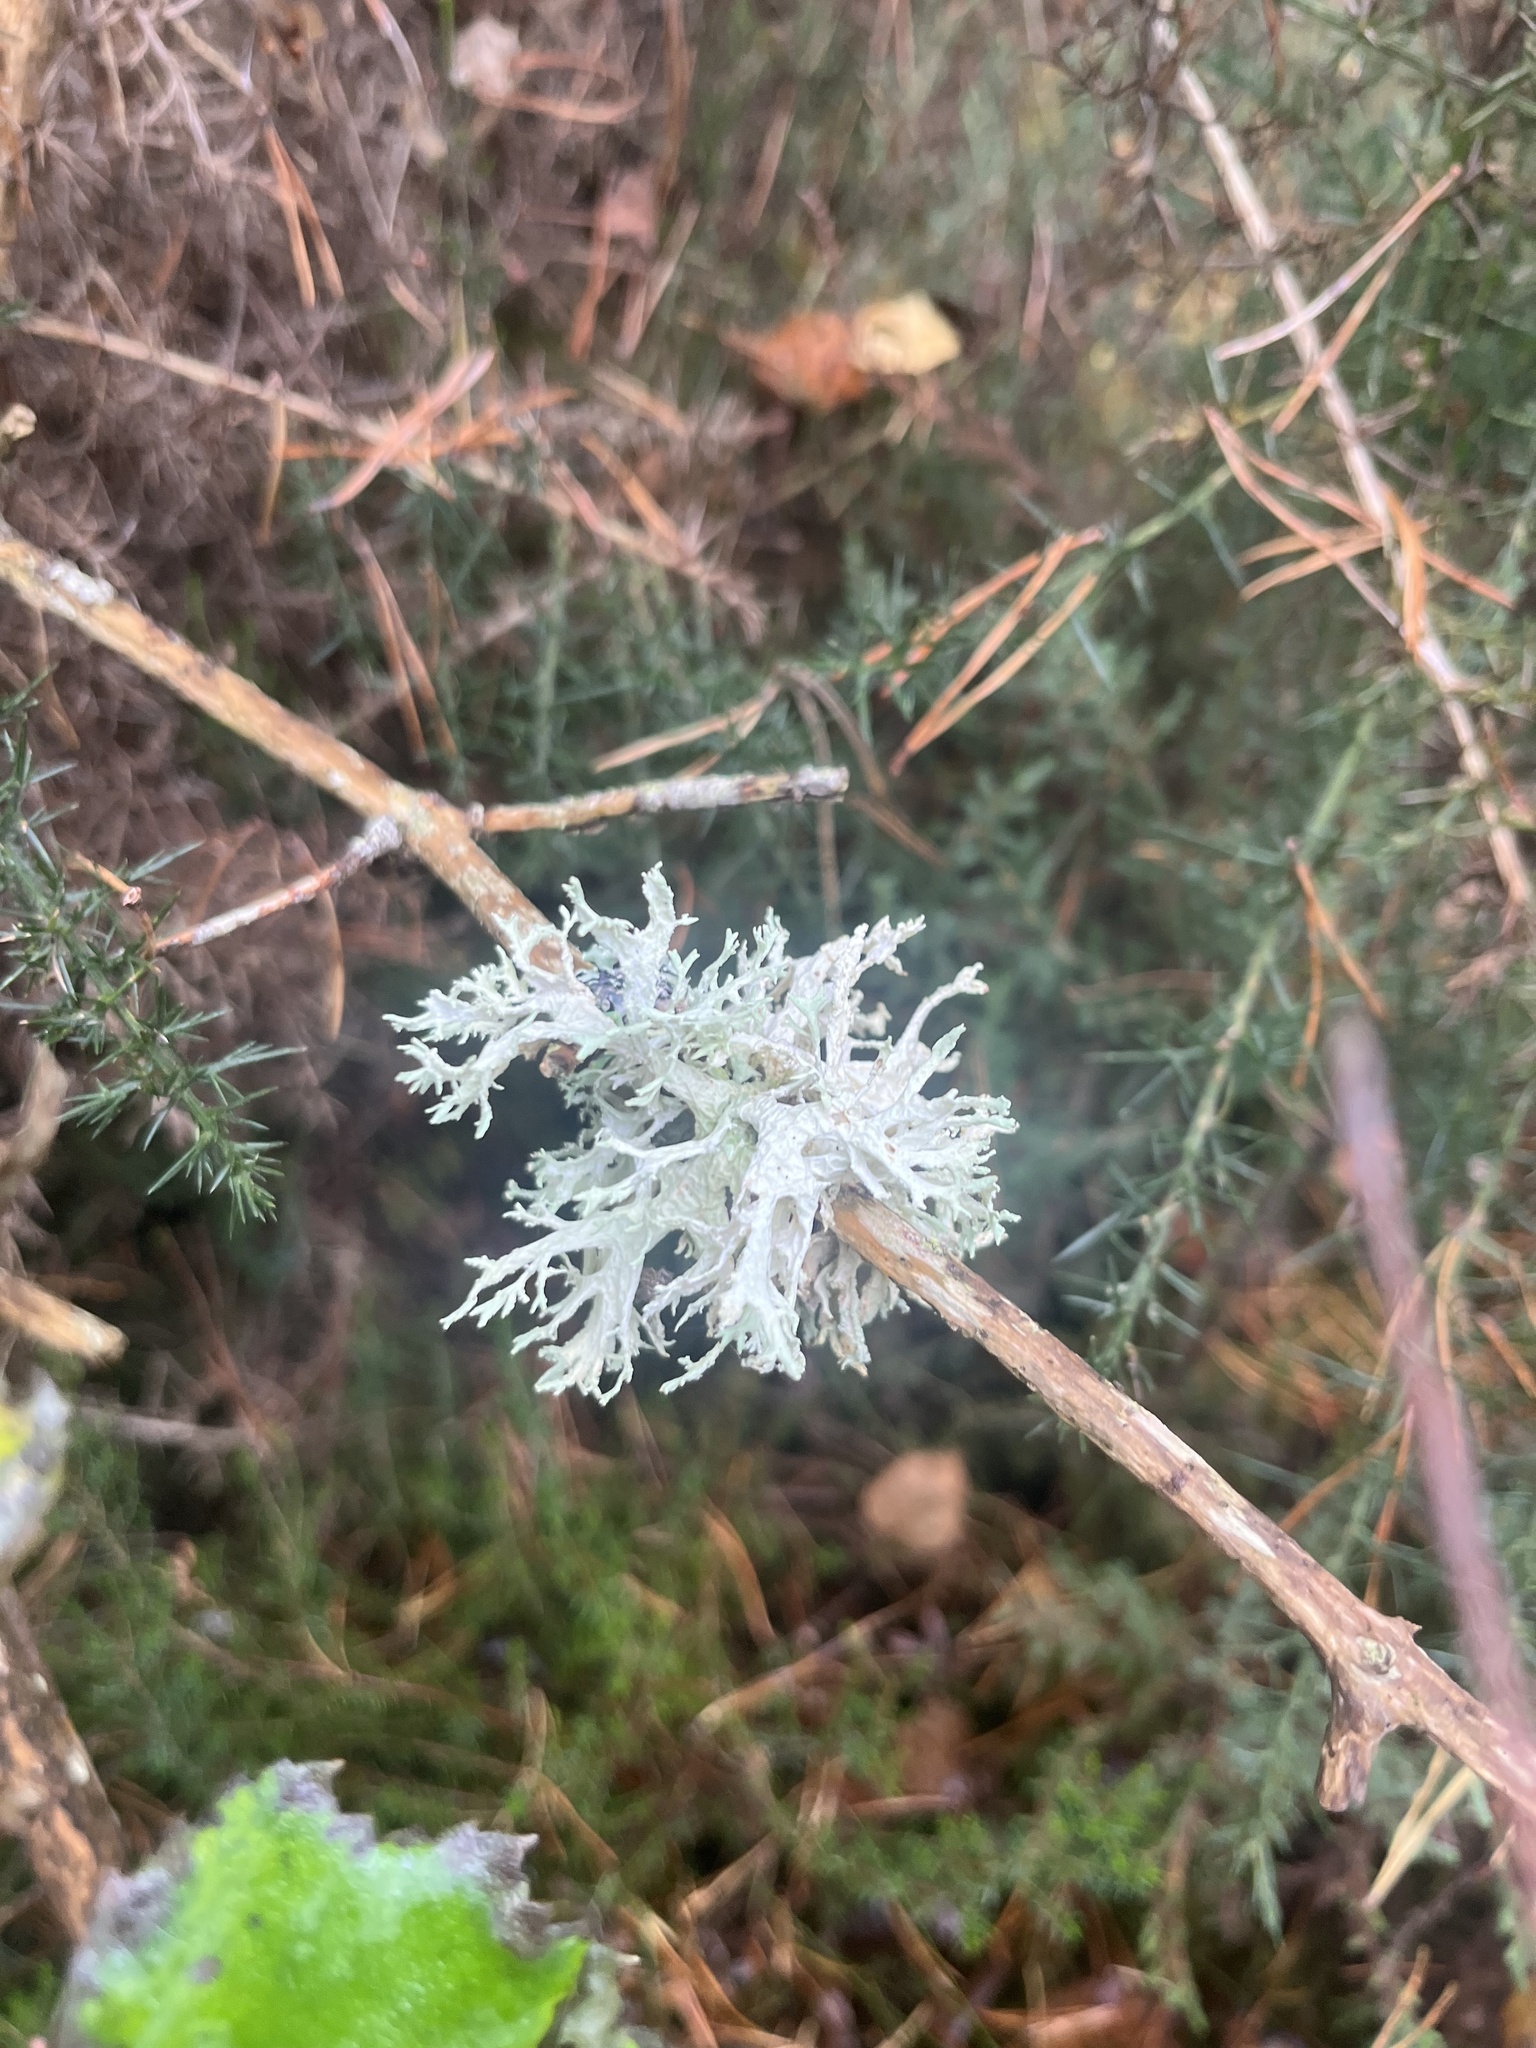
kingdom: Fungi
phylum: Ascomycota
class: Lecanoromycetes
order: Lecanorales
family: Parmeliaceae
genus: Evernia
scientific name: Evernia prunastri
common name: Oak moss
